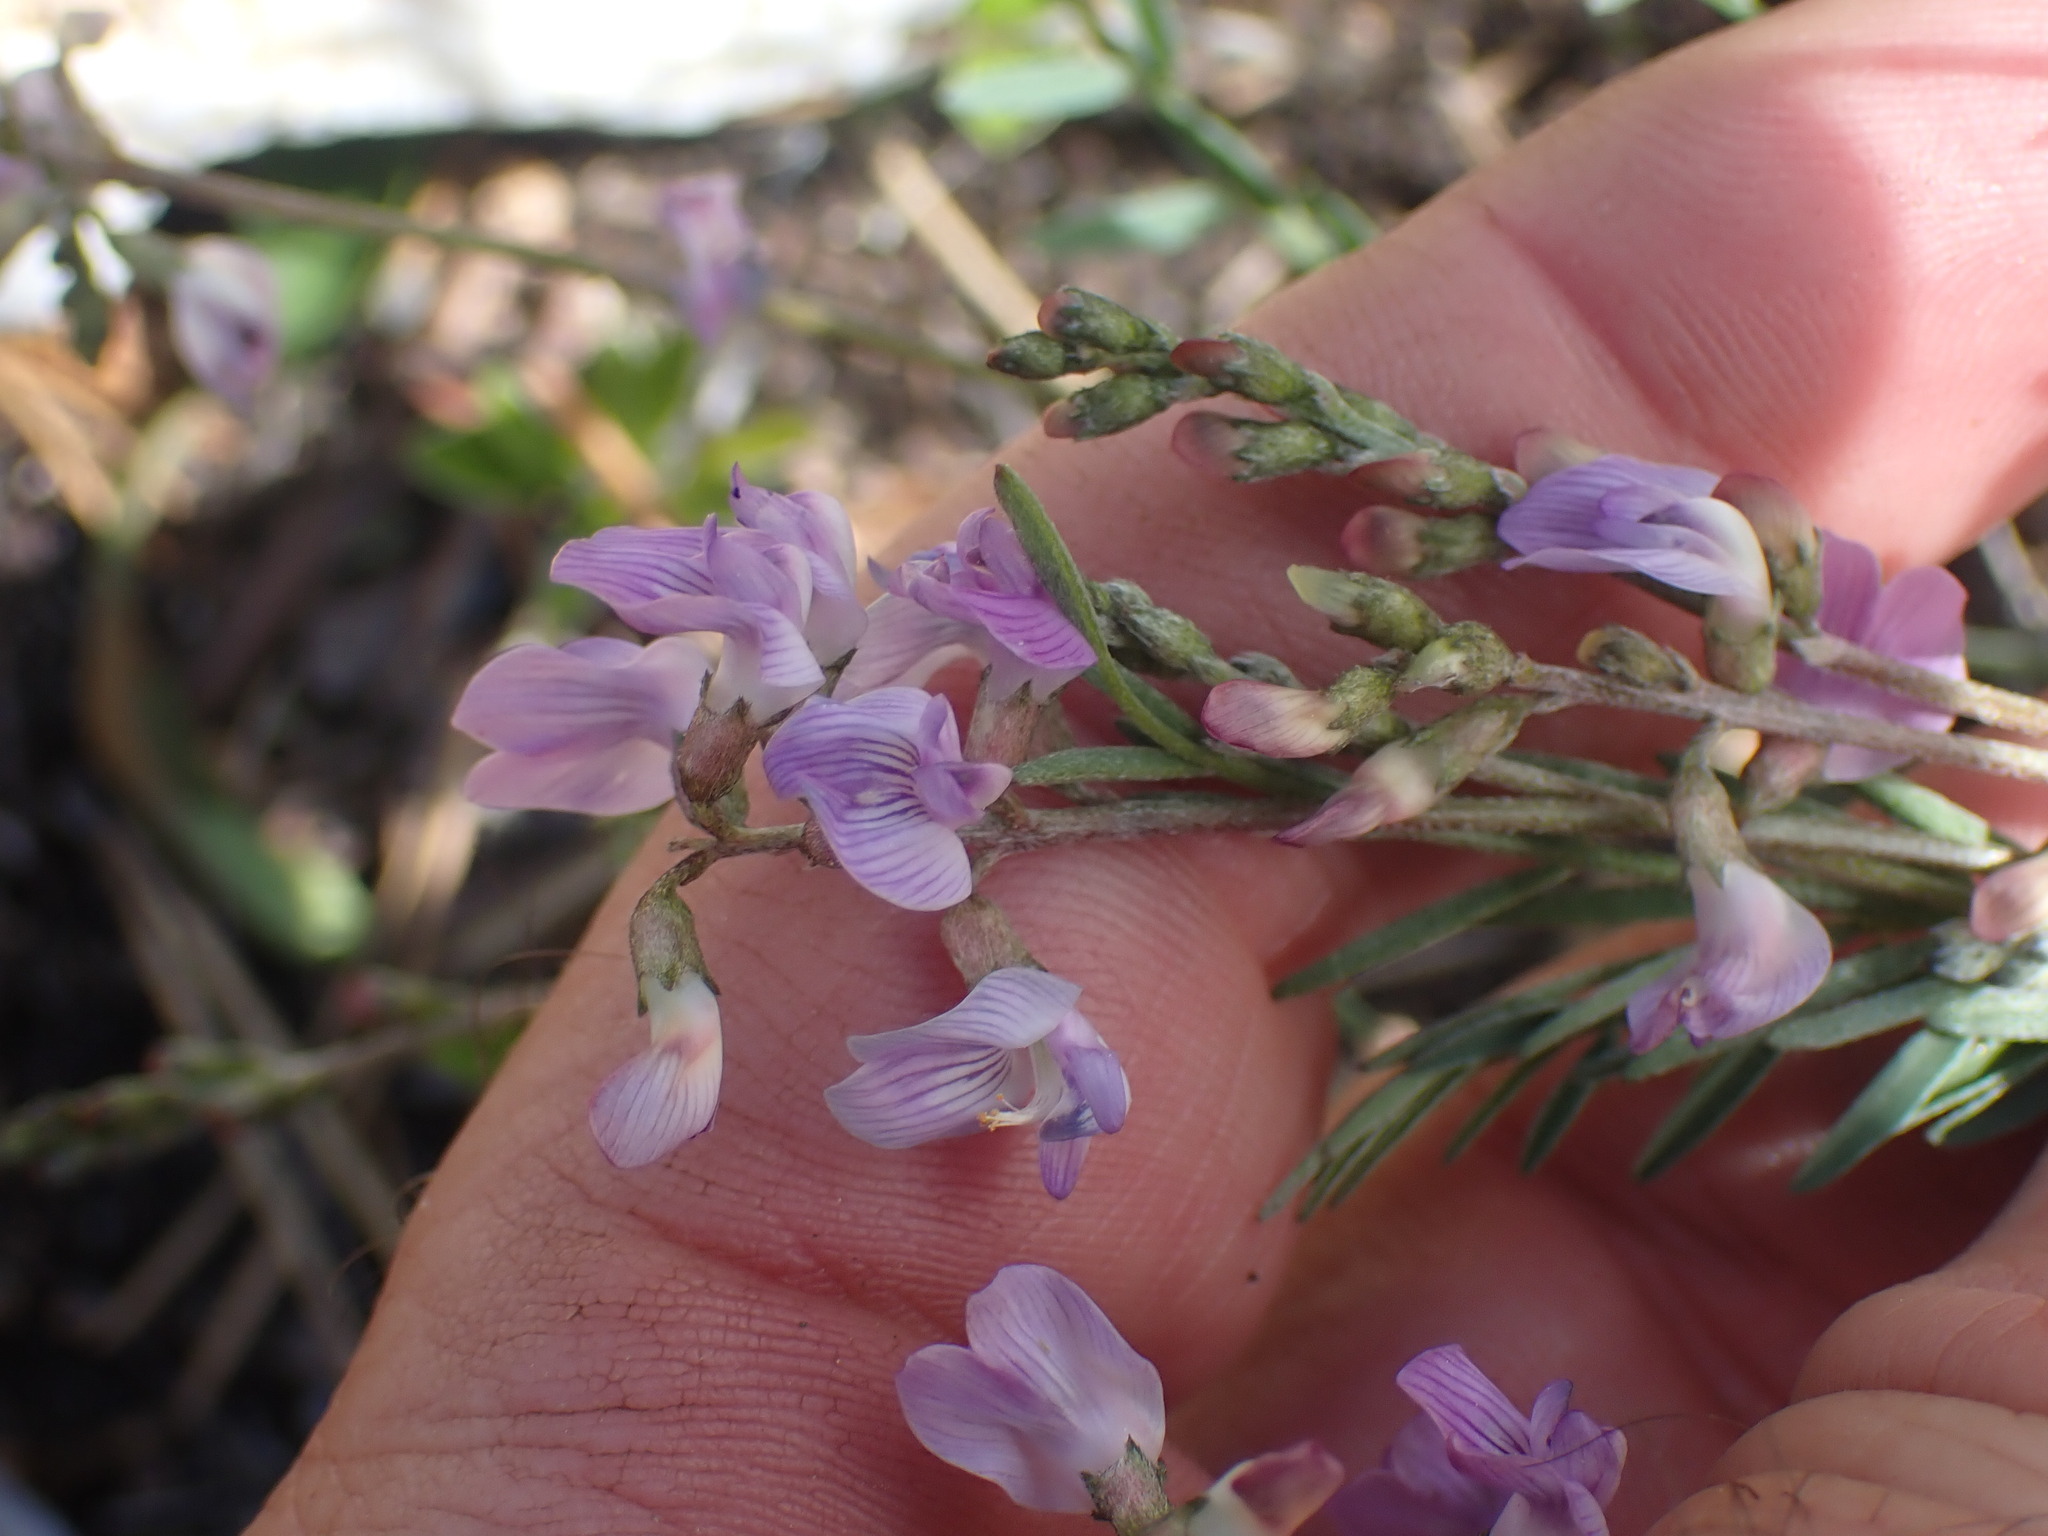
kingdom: Plantae
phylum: Tracheophyta
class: Magnoliopsida
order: Fabales
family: Fabaceae
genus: Astragalus
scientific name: Astragalus miser
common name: Timber milkvetch
